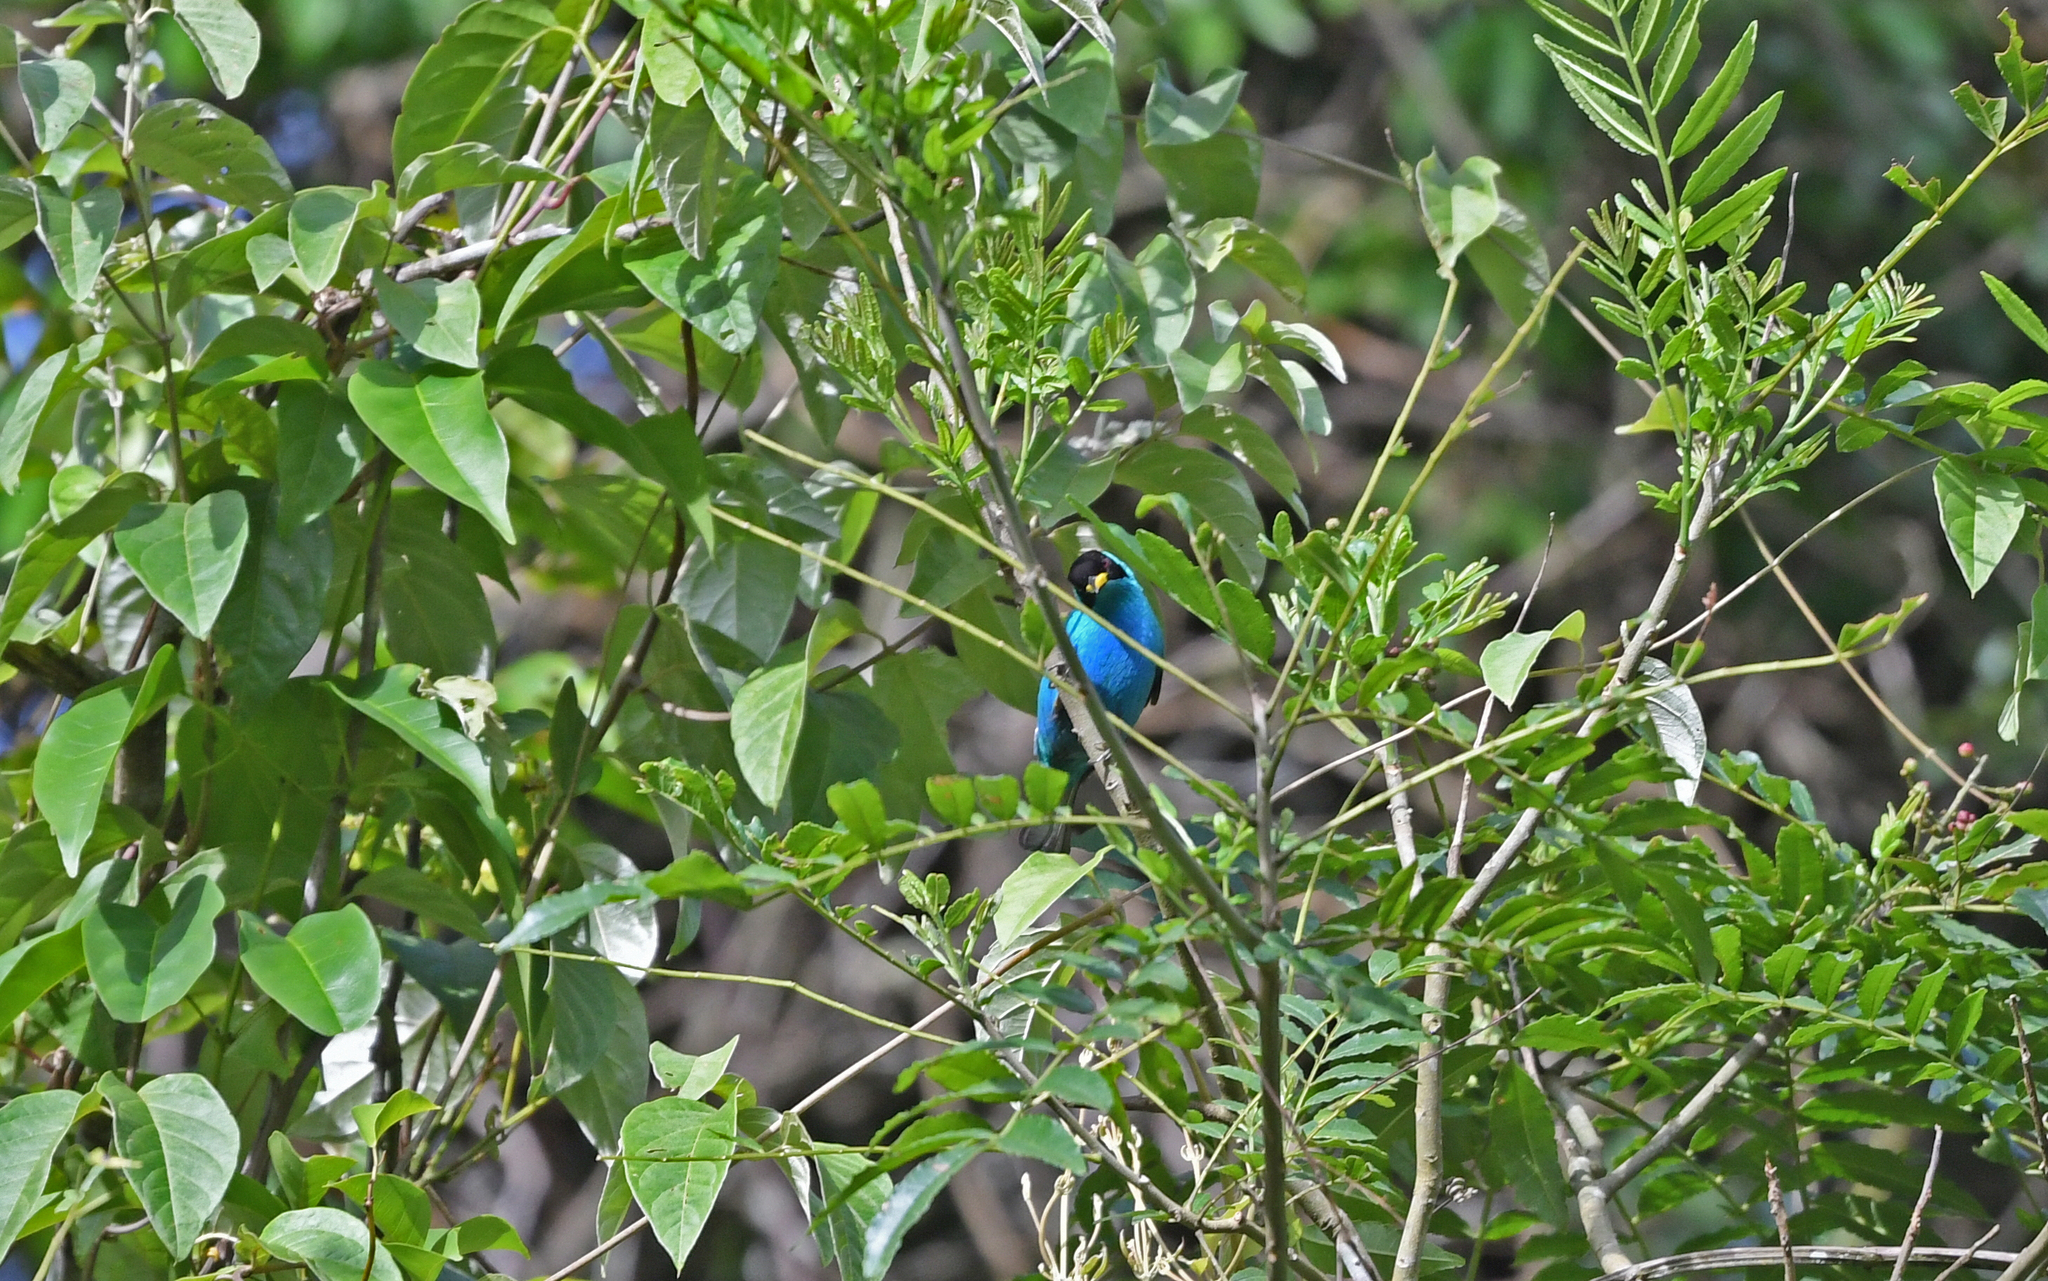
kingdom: Animalia
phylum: Chordata
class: Aves
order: Passeriformes
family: Thraupidae
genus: Chlorophanes
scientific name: Chlorophanes spiza
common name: Green honeycreeper
